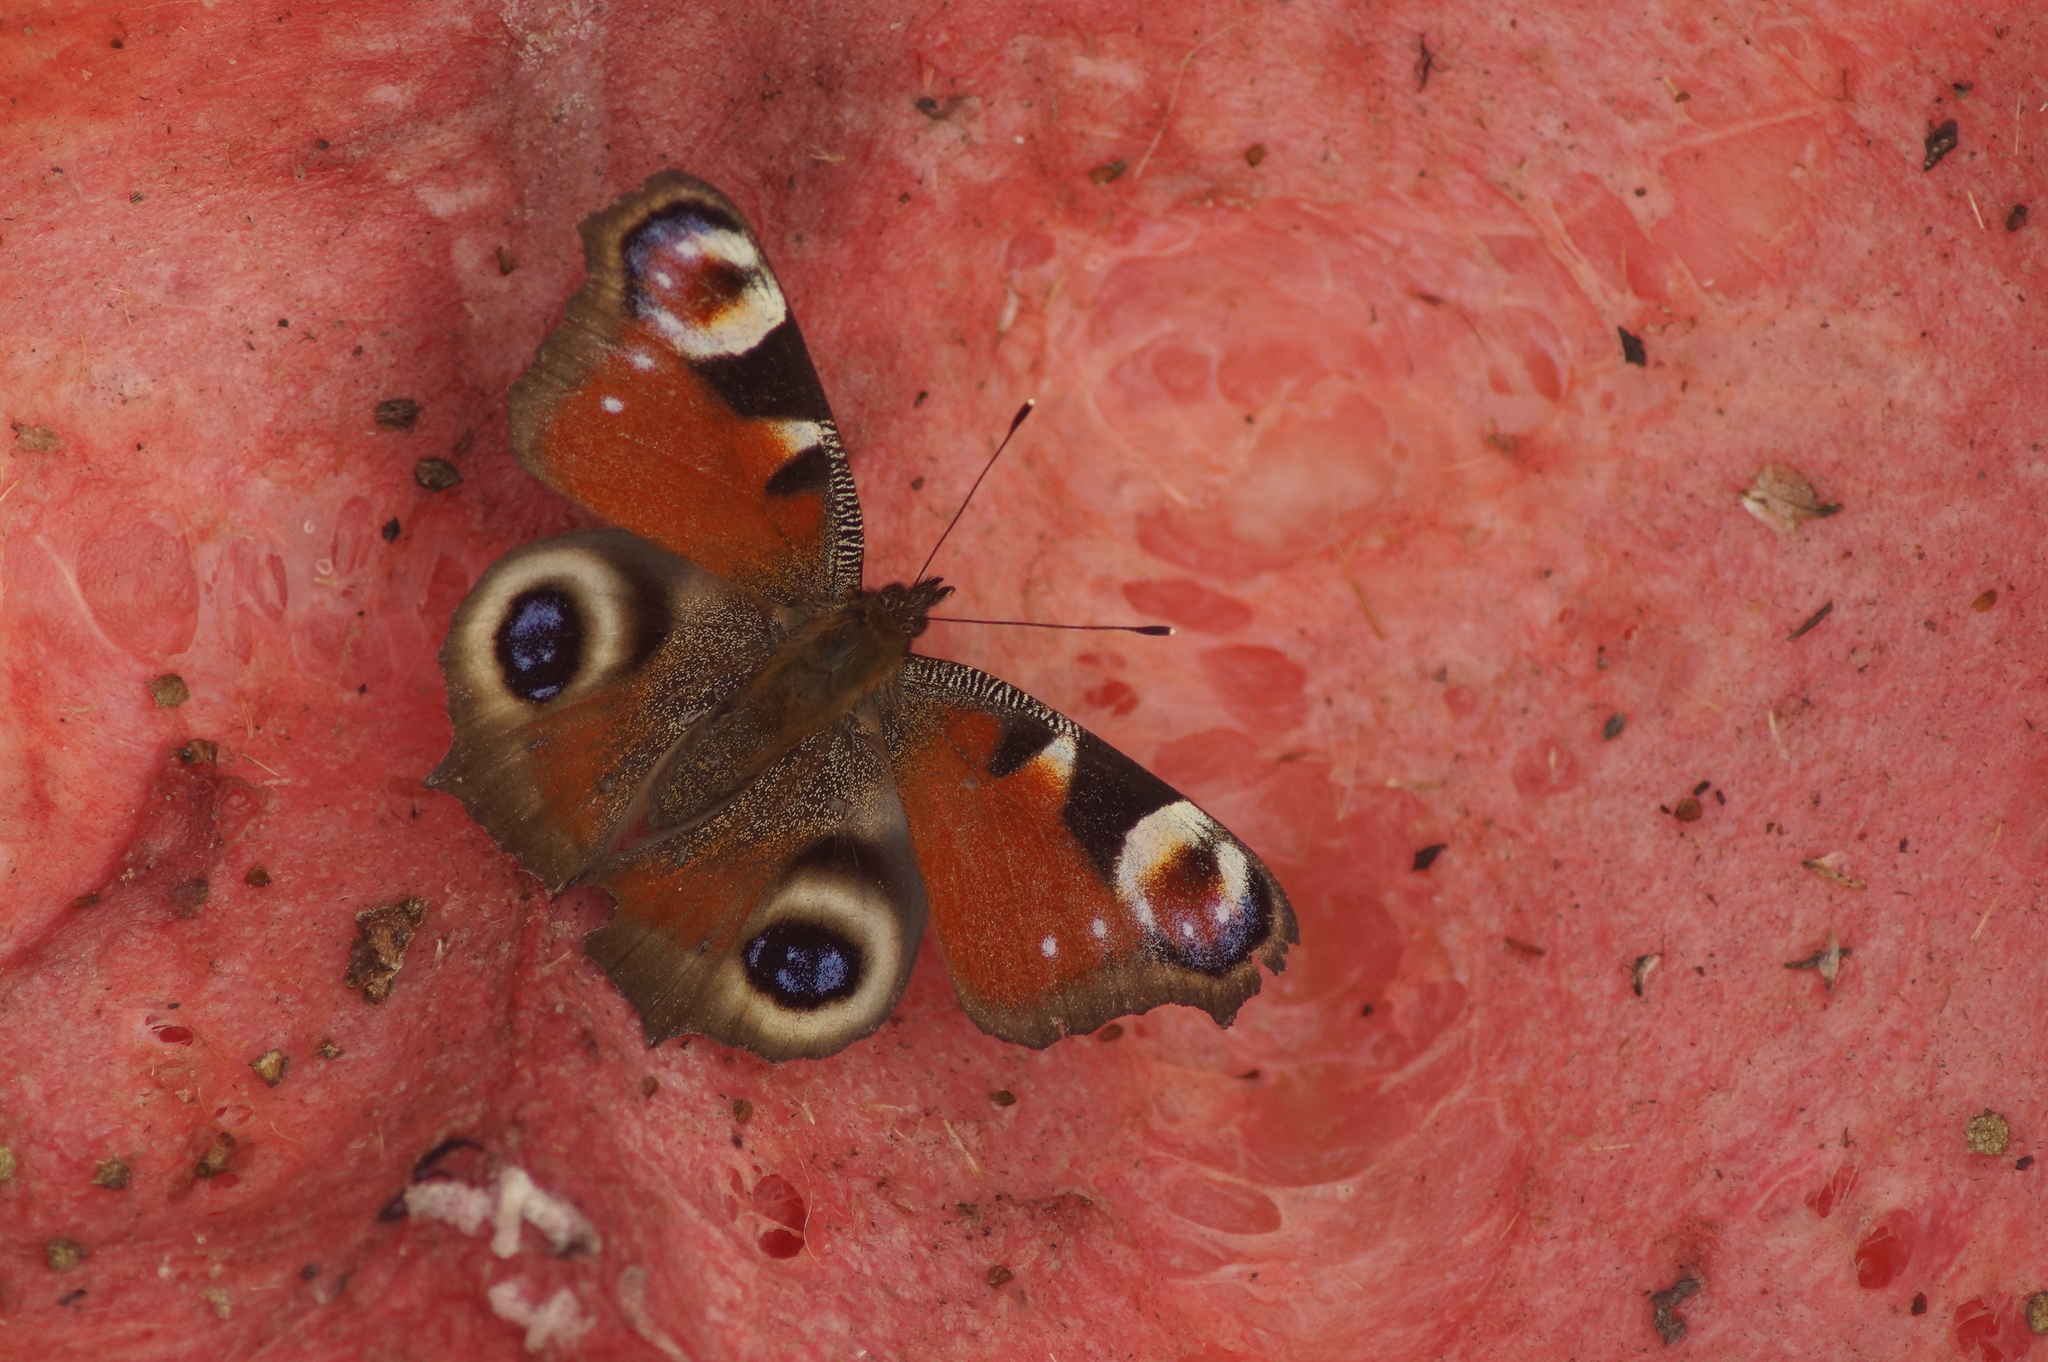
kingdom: Animalia
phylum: Arthropoda
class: Insecta
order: Lepidoptera
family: Nymphalidae
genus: Aglais
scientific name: Aglais io
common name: Peacock
